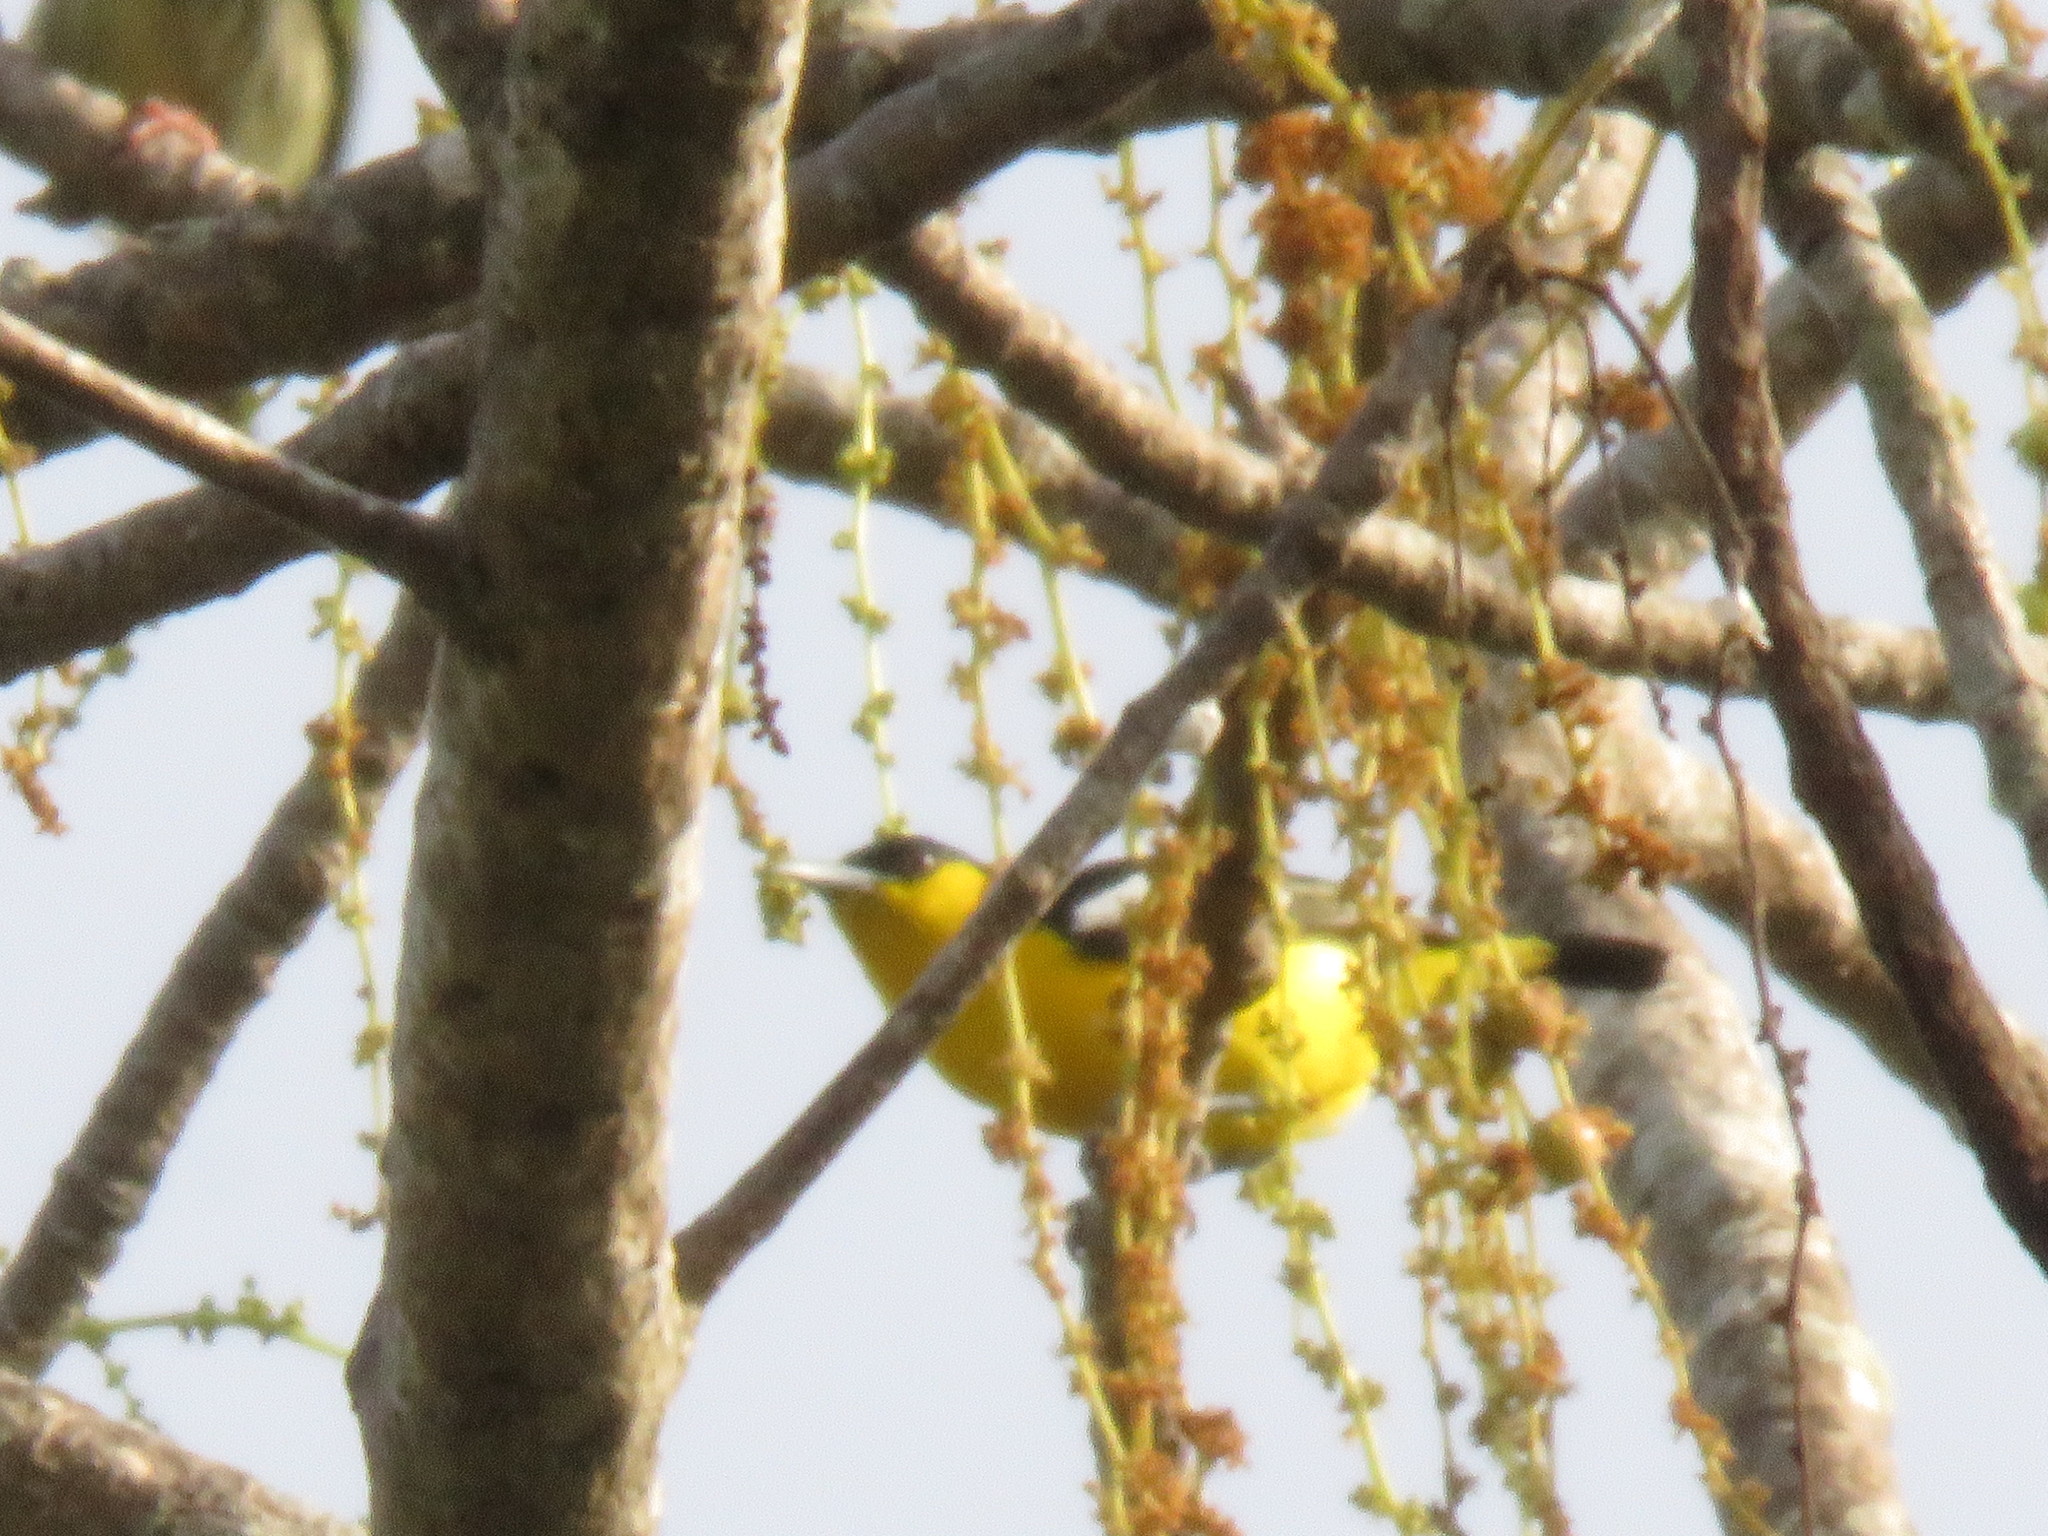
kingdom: Animalia
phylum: Chordata
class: Aves
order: Passeriformes
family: Aegithinidae
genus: Aegithina
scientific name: Aegithina tiphia
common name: Common iora
